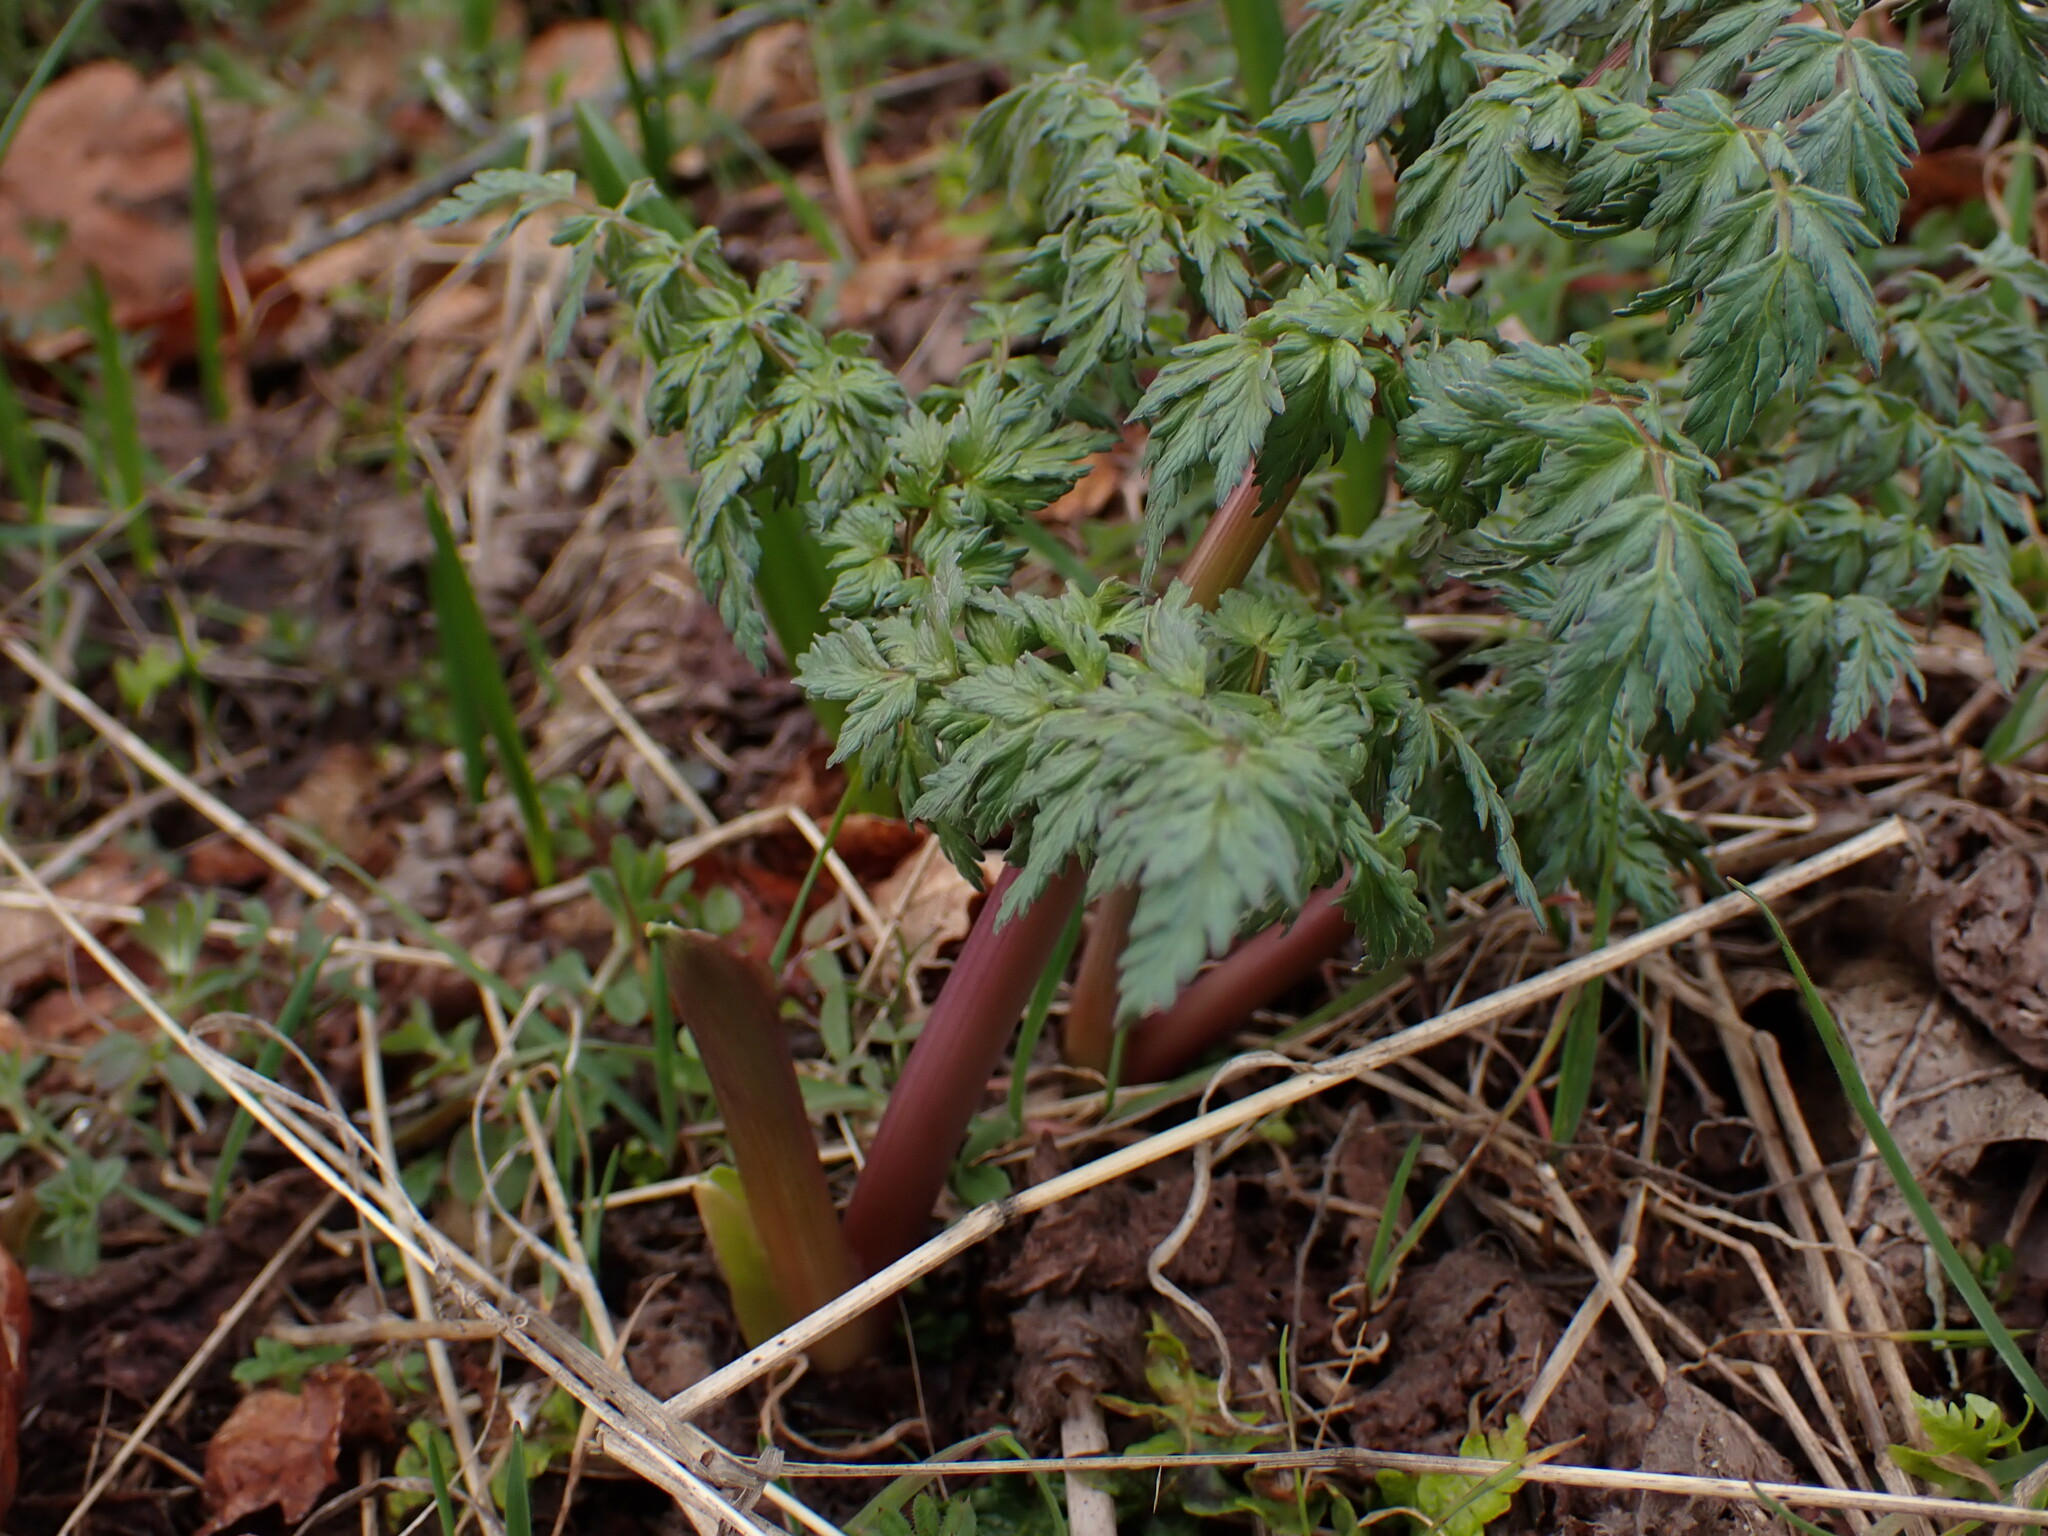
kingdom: Plantae
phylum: Tracheophyta
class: Magnoliopsida
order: Apiales
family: Apiaceae
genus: Lomatium
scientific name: Lomatium dissectum
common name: Lomatium
